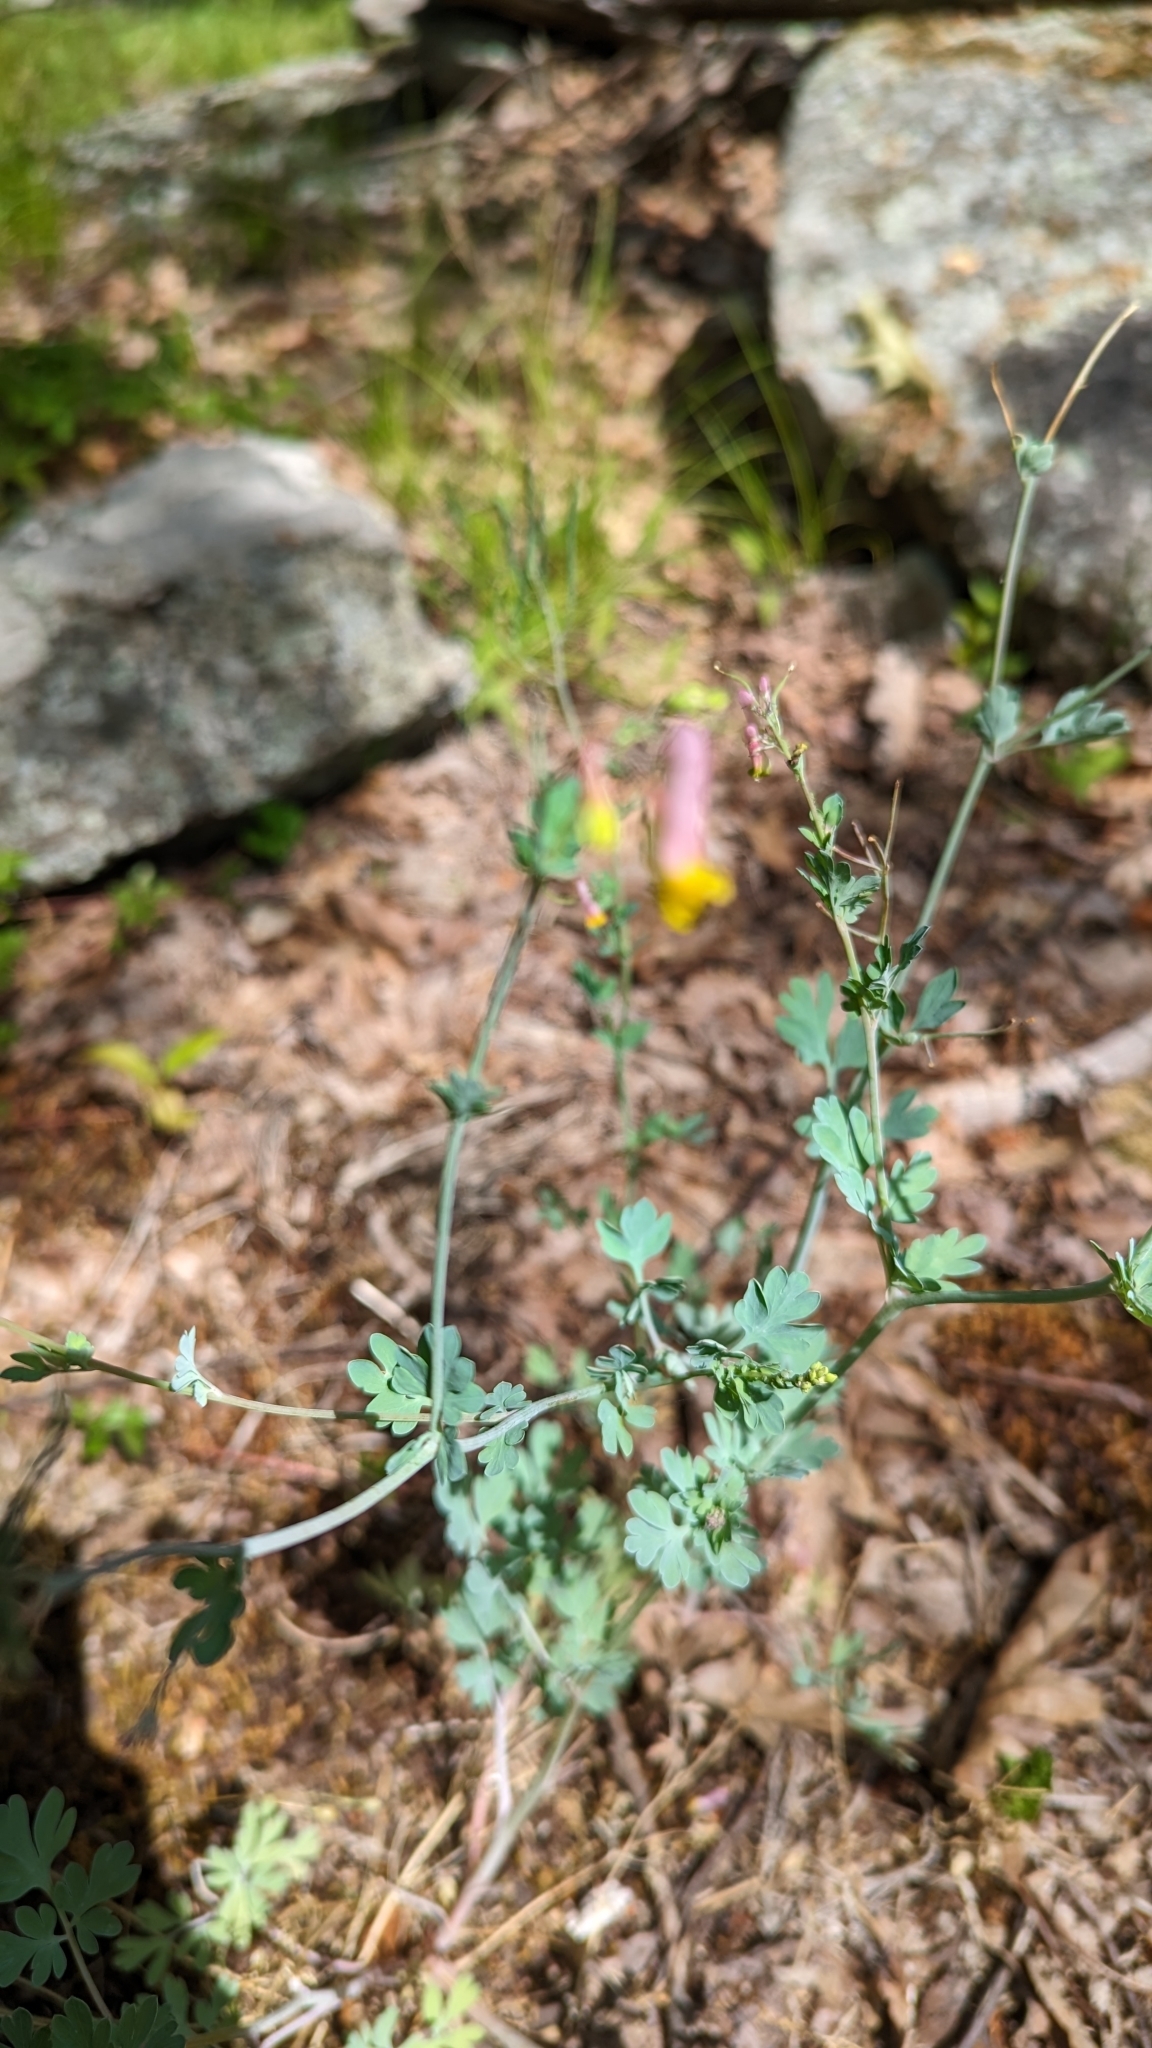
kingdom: Plantae
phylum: Tracheophyta
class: Magnoliopsida
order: Ranunculales
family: Papaveraceae
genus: Capnoides
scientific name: Capnoides sempervirens
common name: Rock harlequin
